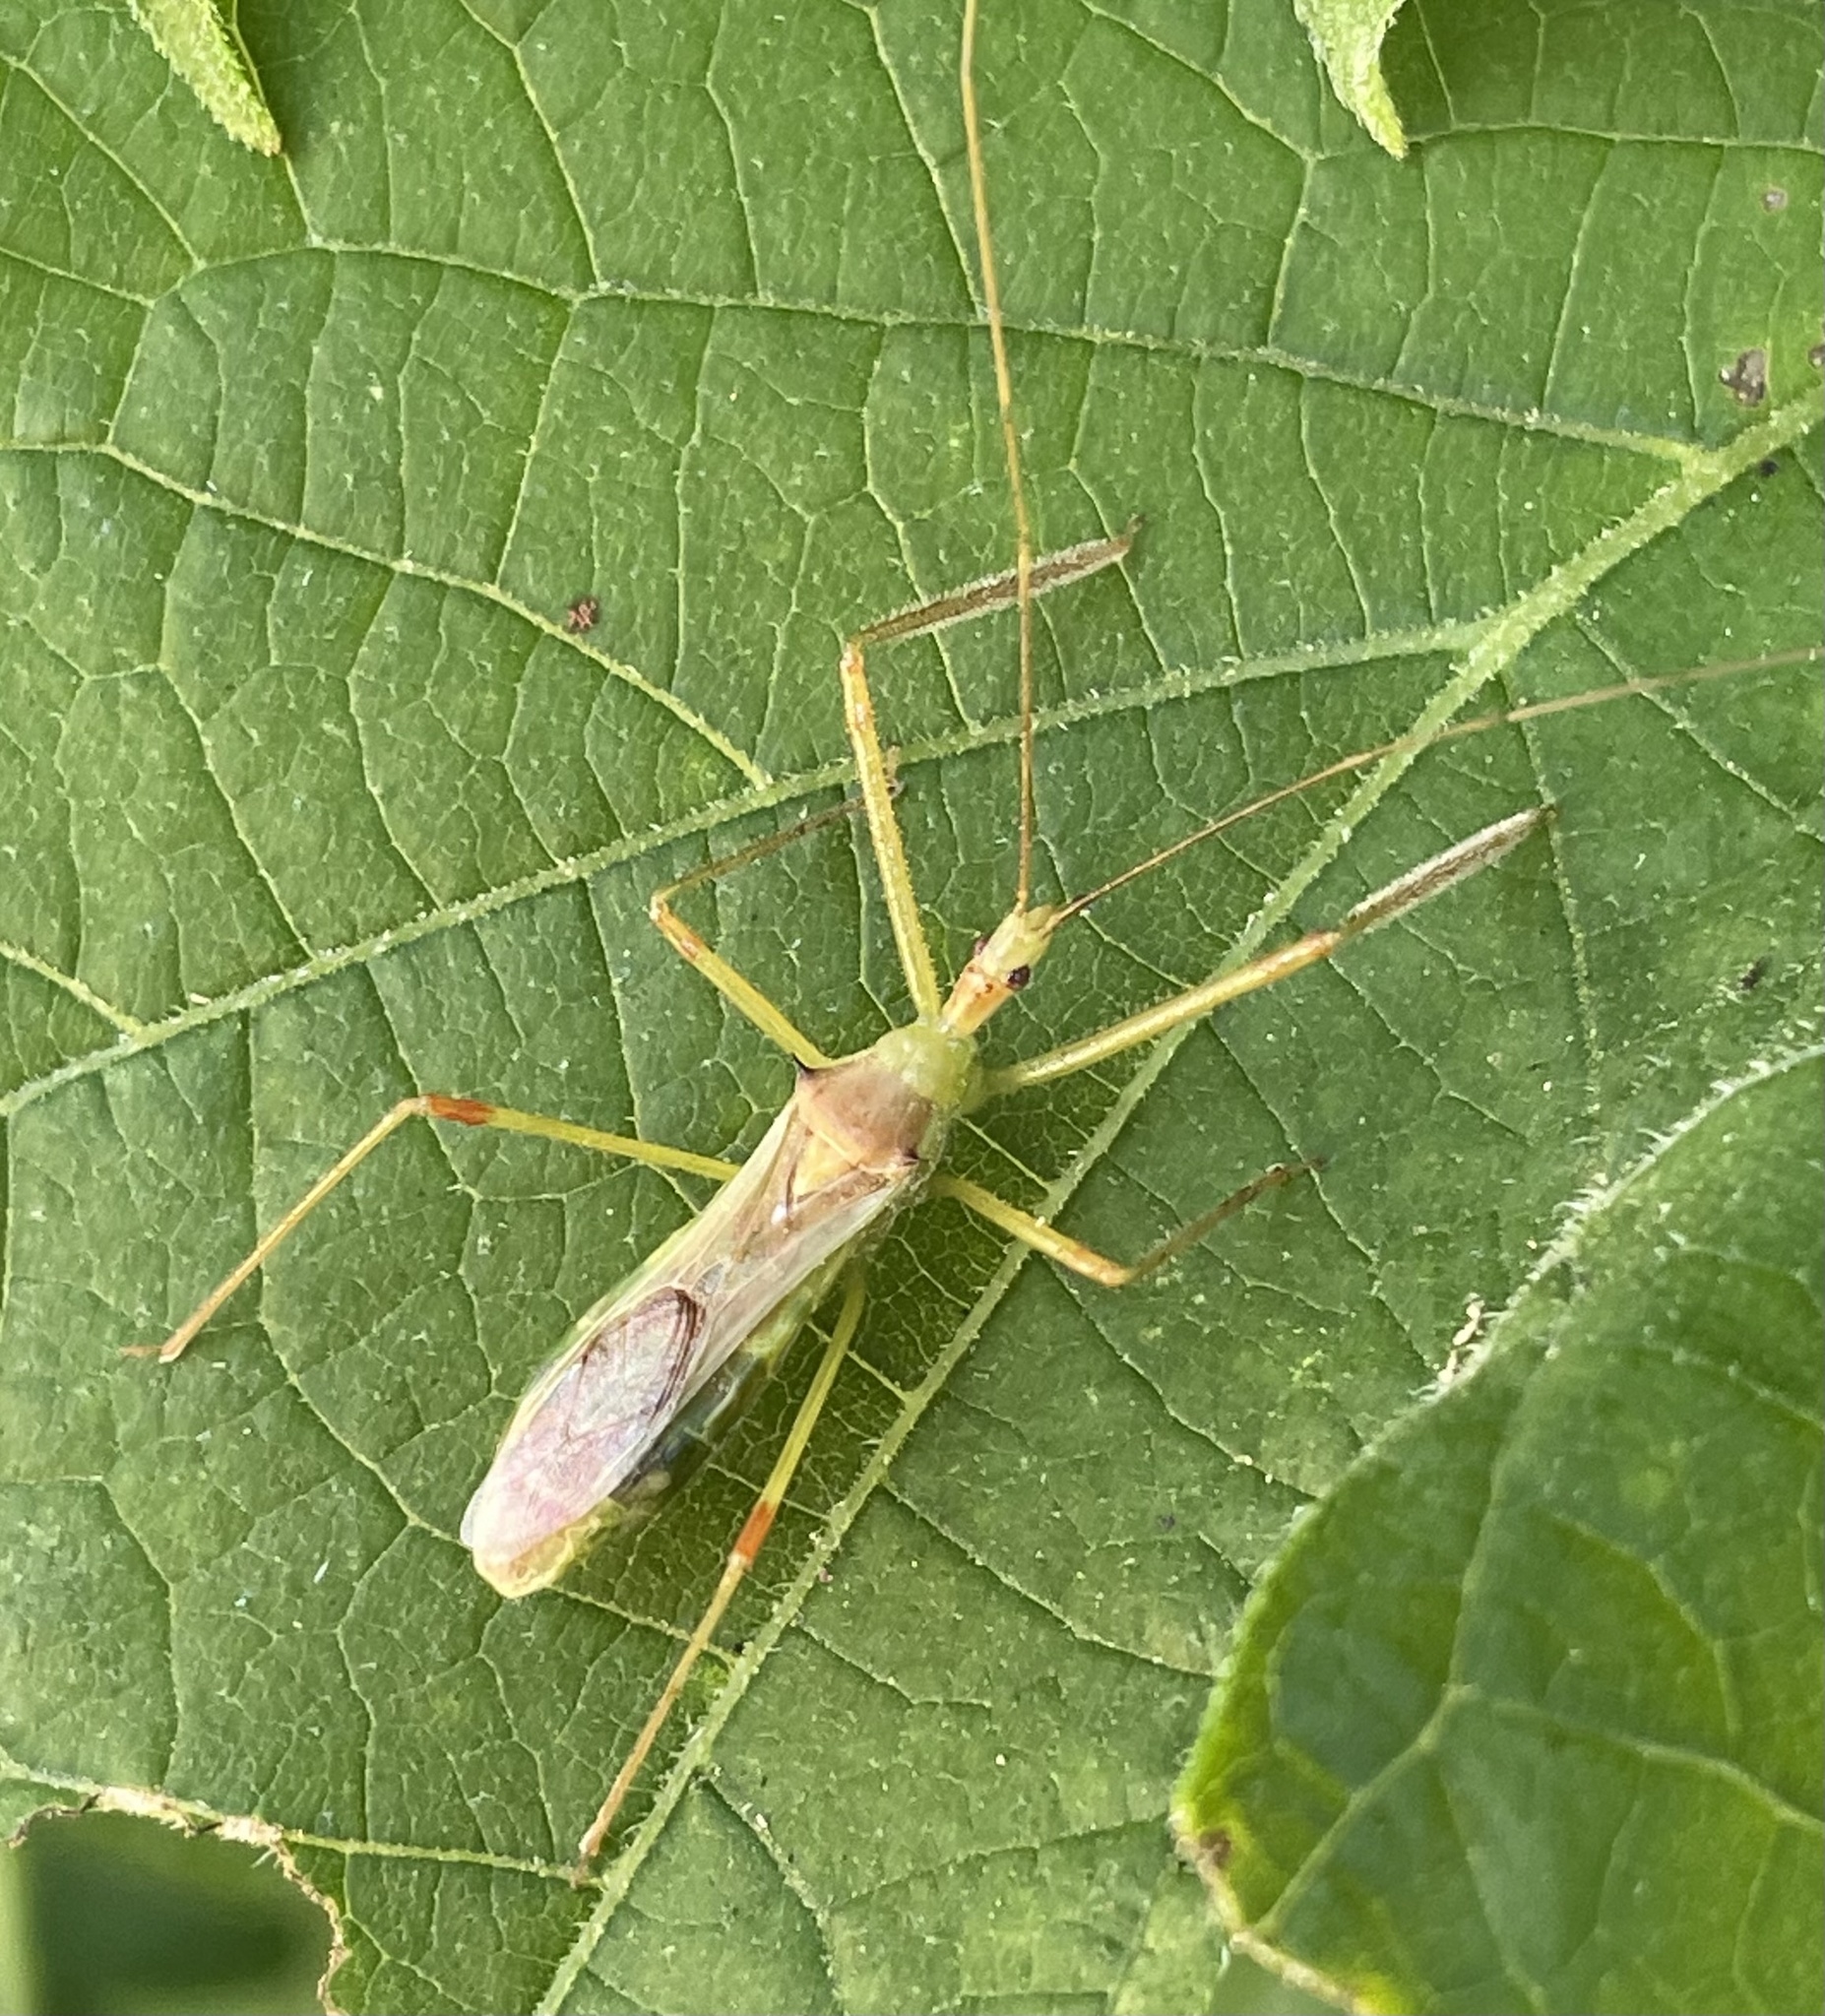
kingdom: Animalia
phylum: Arthropoda
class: Insecta
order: Hemiptera
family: Reduviidae
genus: Zelus
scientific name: Zelus luridus
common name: Pale green assassin bug
